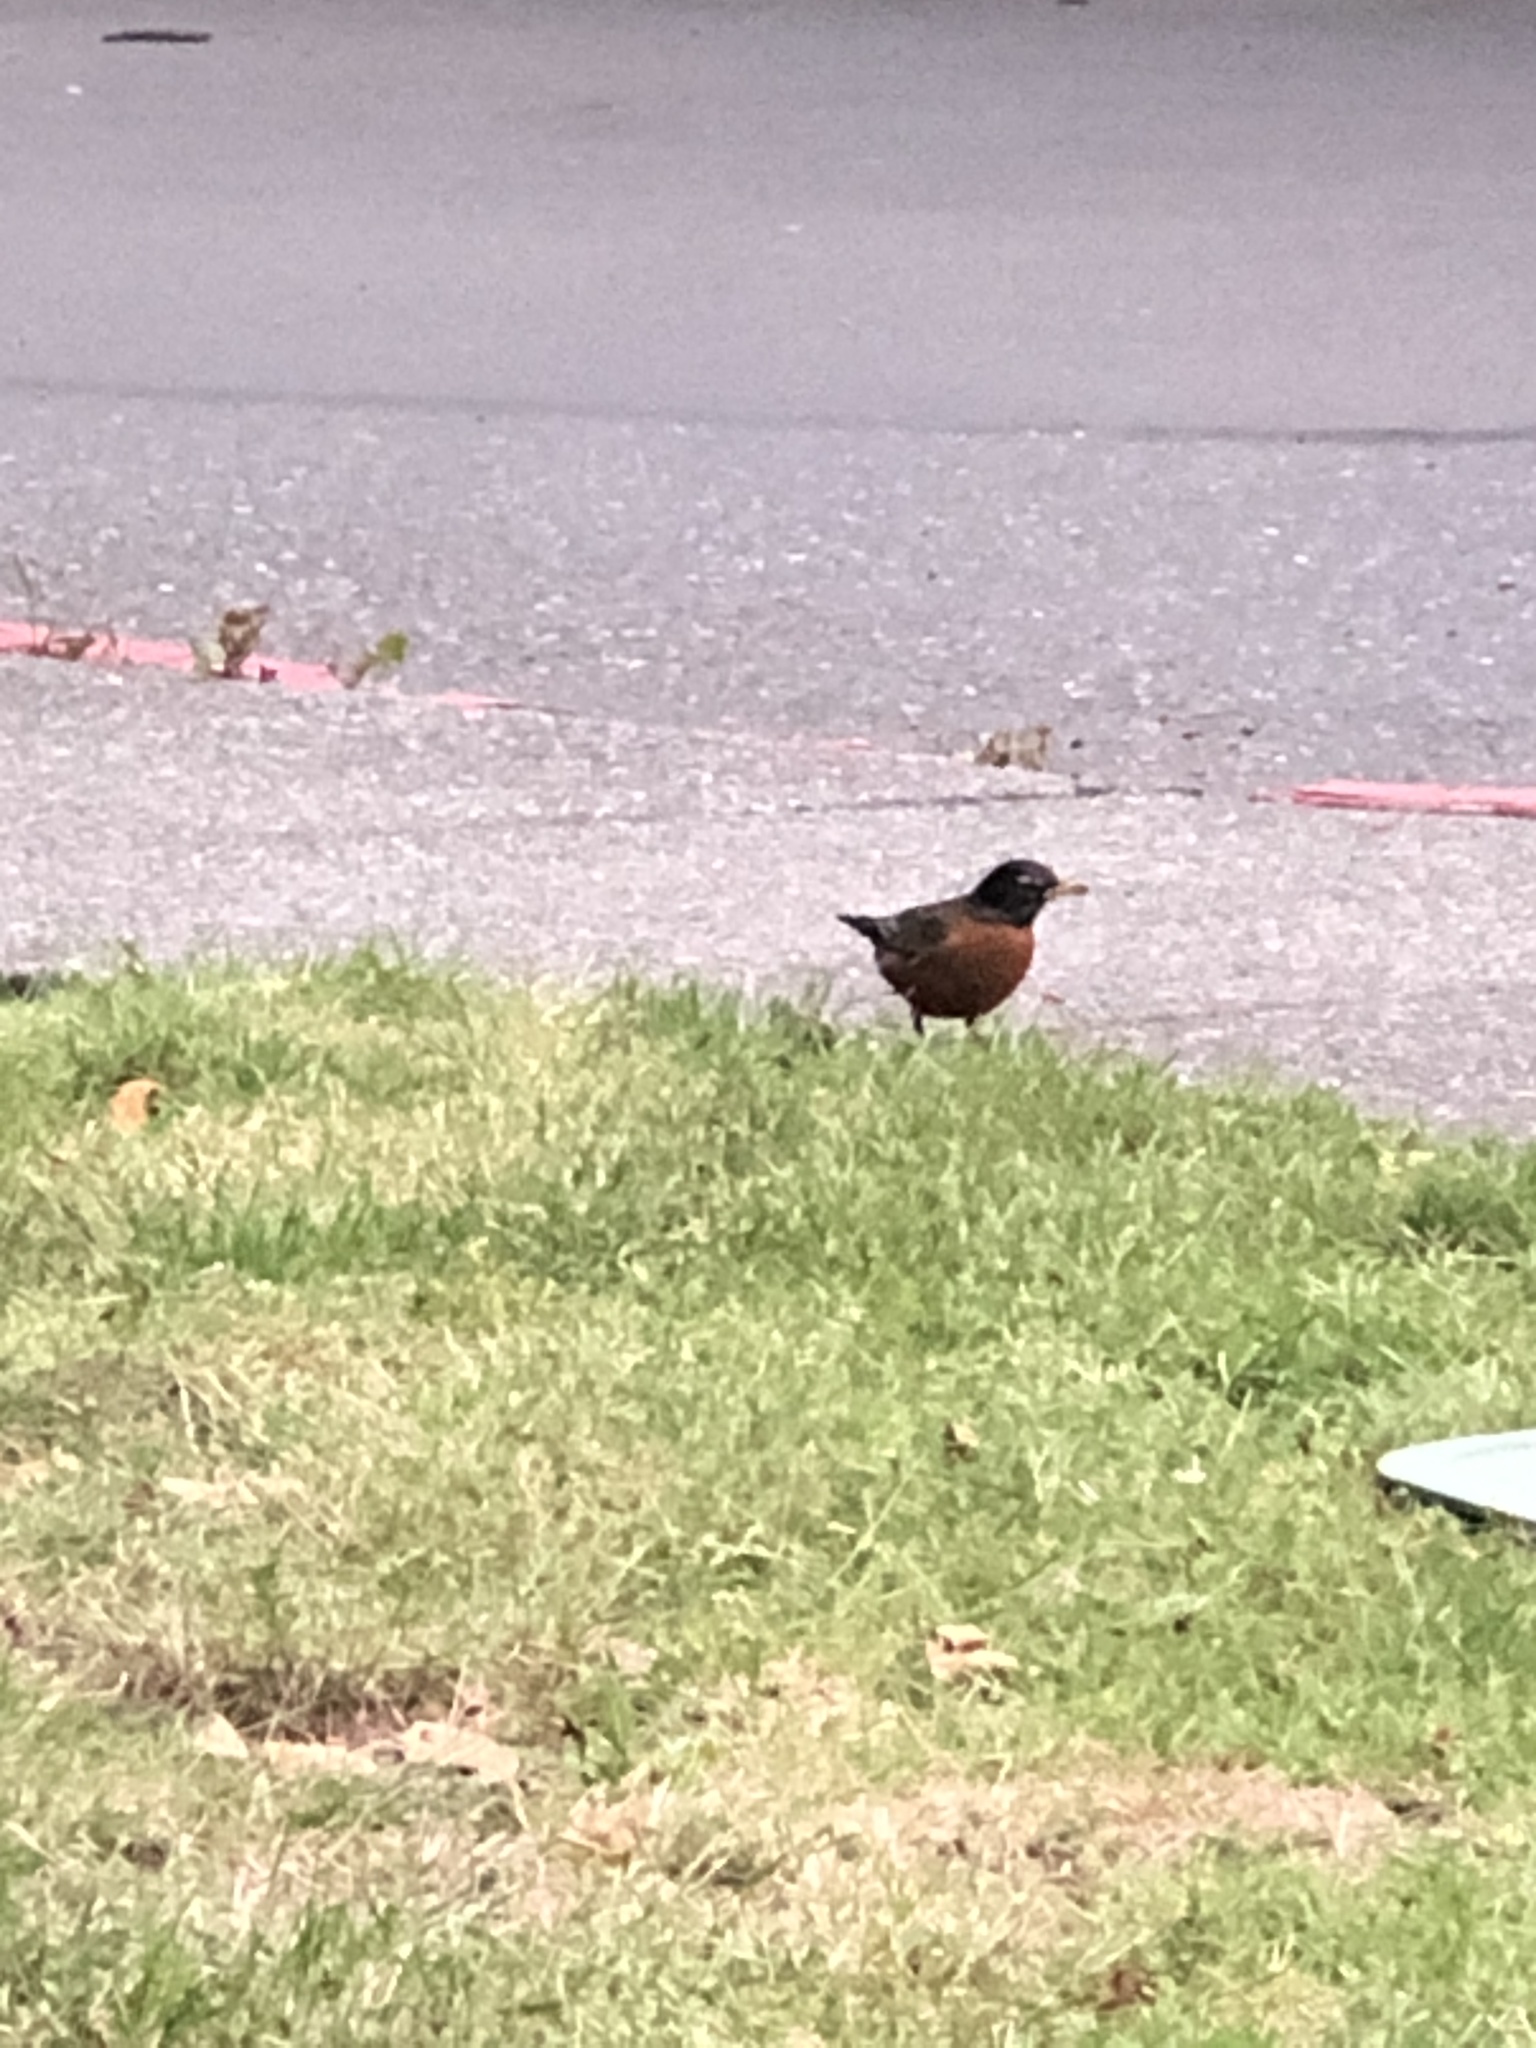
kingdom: Animalia
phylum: Chordata
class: Aves
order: Passeriformes
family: Turdidae
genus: Turdus
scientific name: Turdus migratorius
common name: American robin
